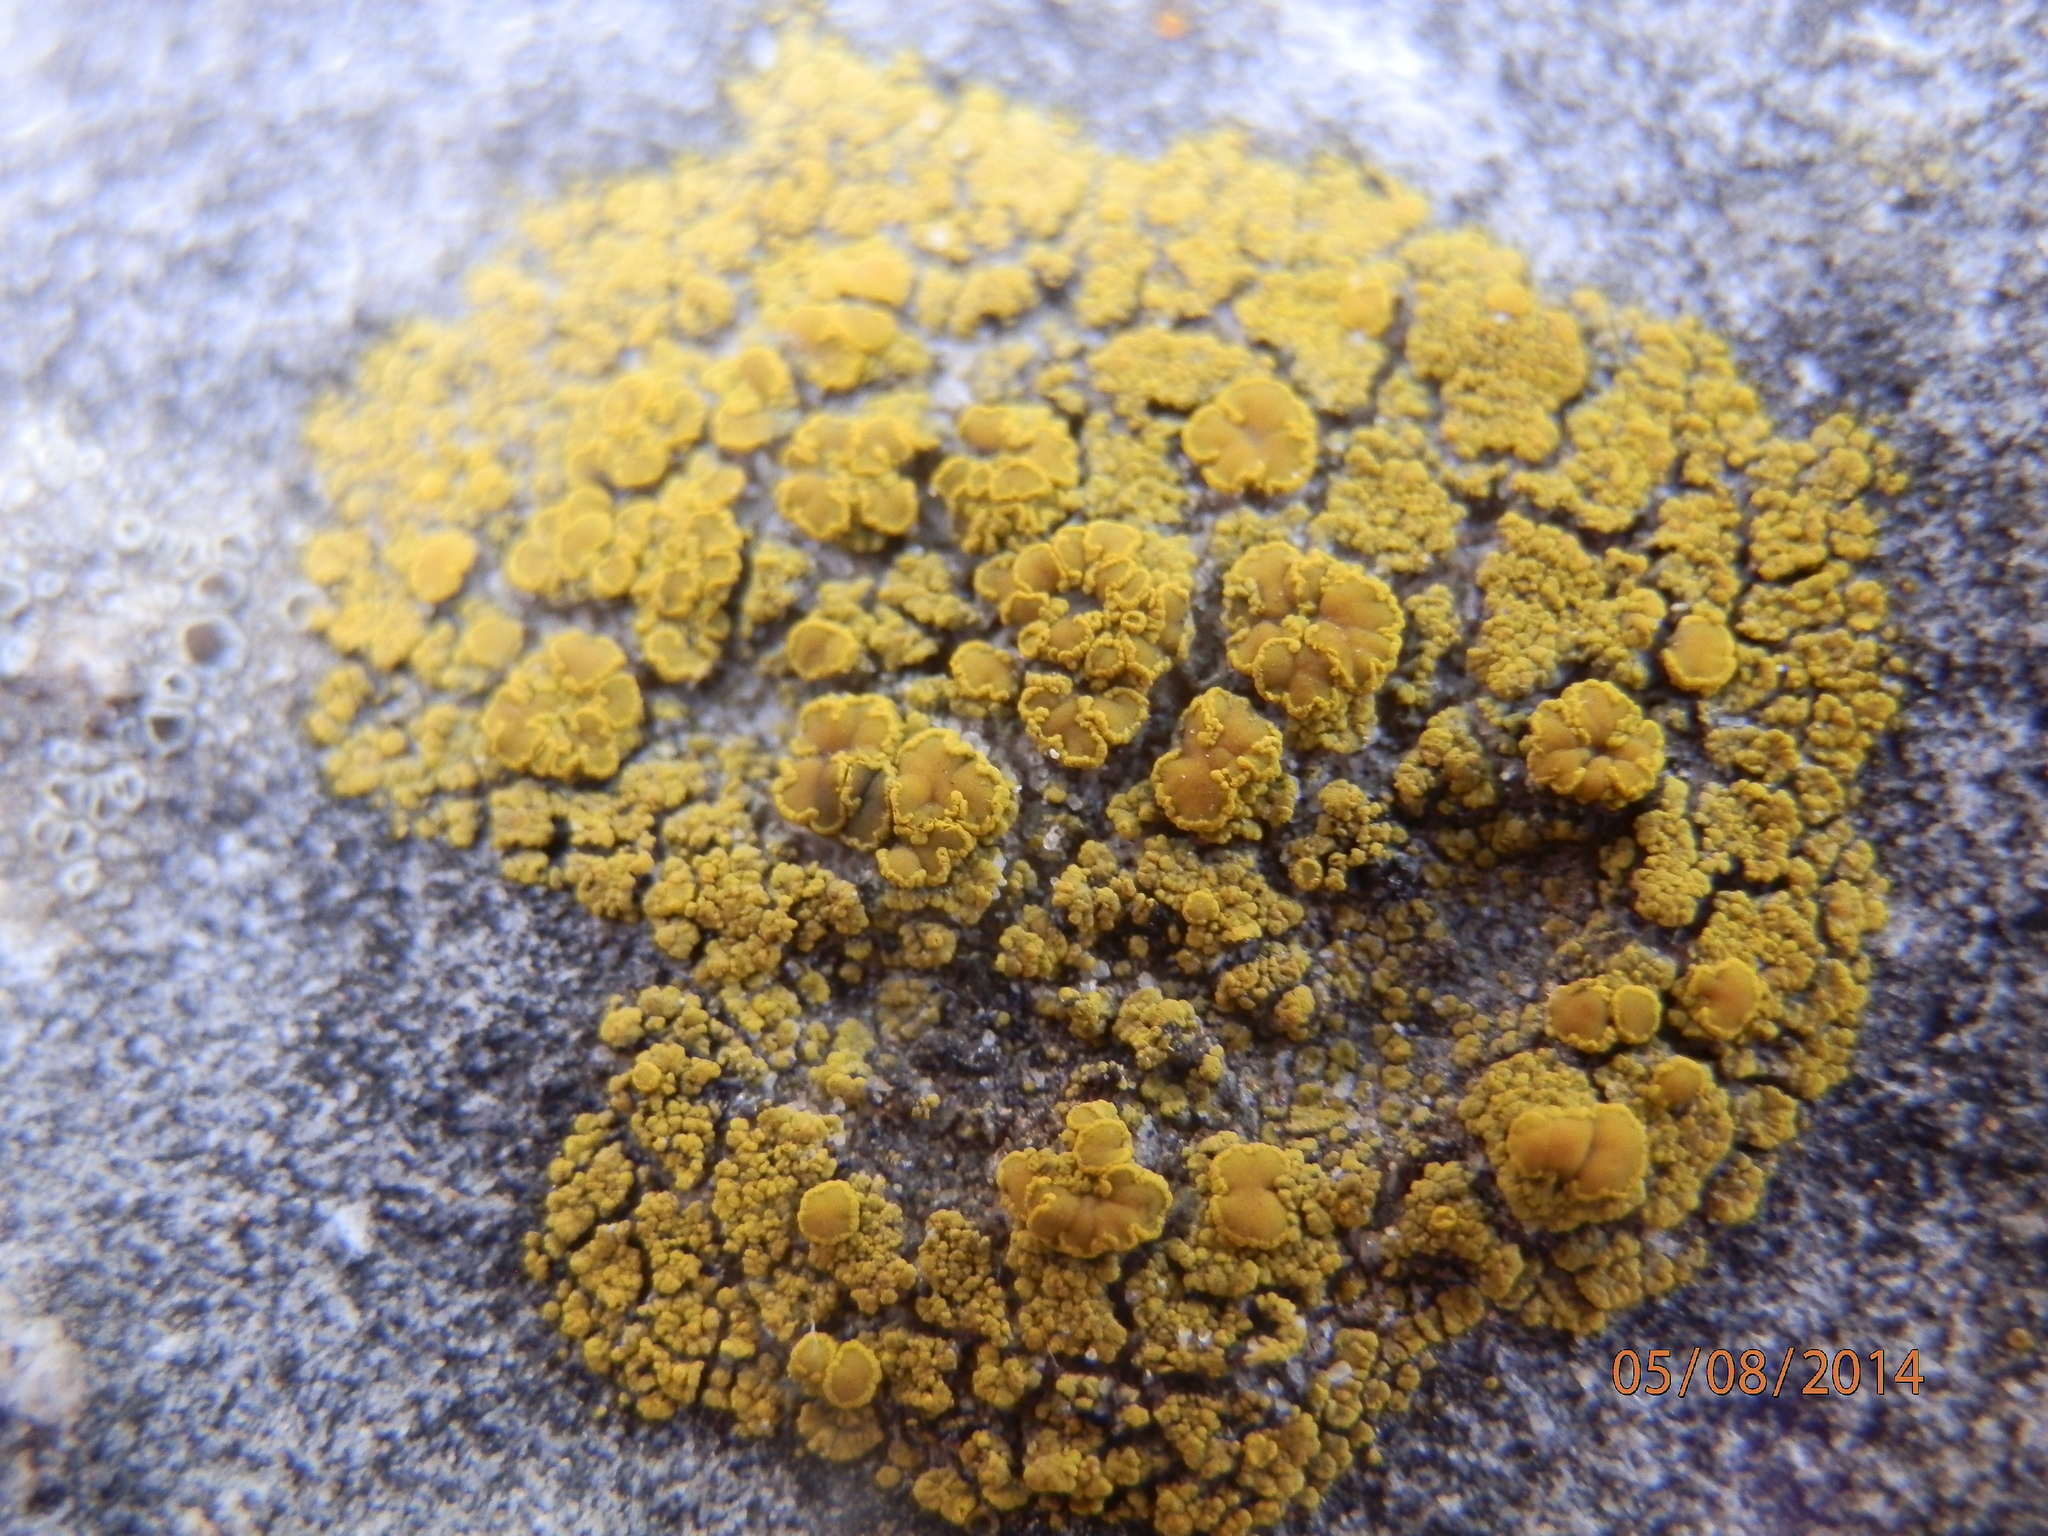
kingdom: Fungi
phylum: Ascomycota
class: Candelariomycetes
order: Candelariales
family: Candelariaceae
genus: Candelariella
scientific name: Candelariella rosulans
